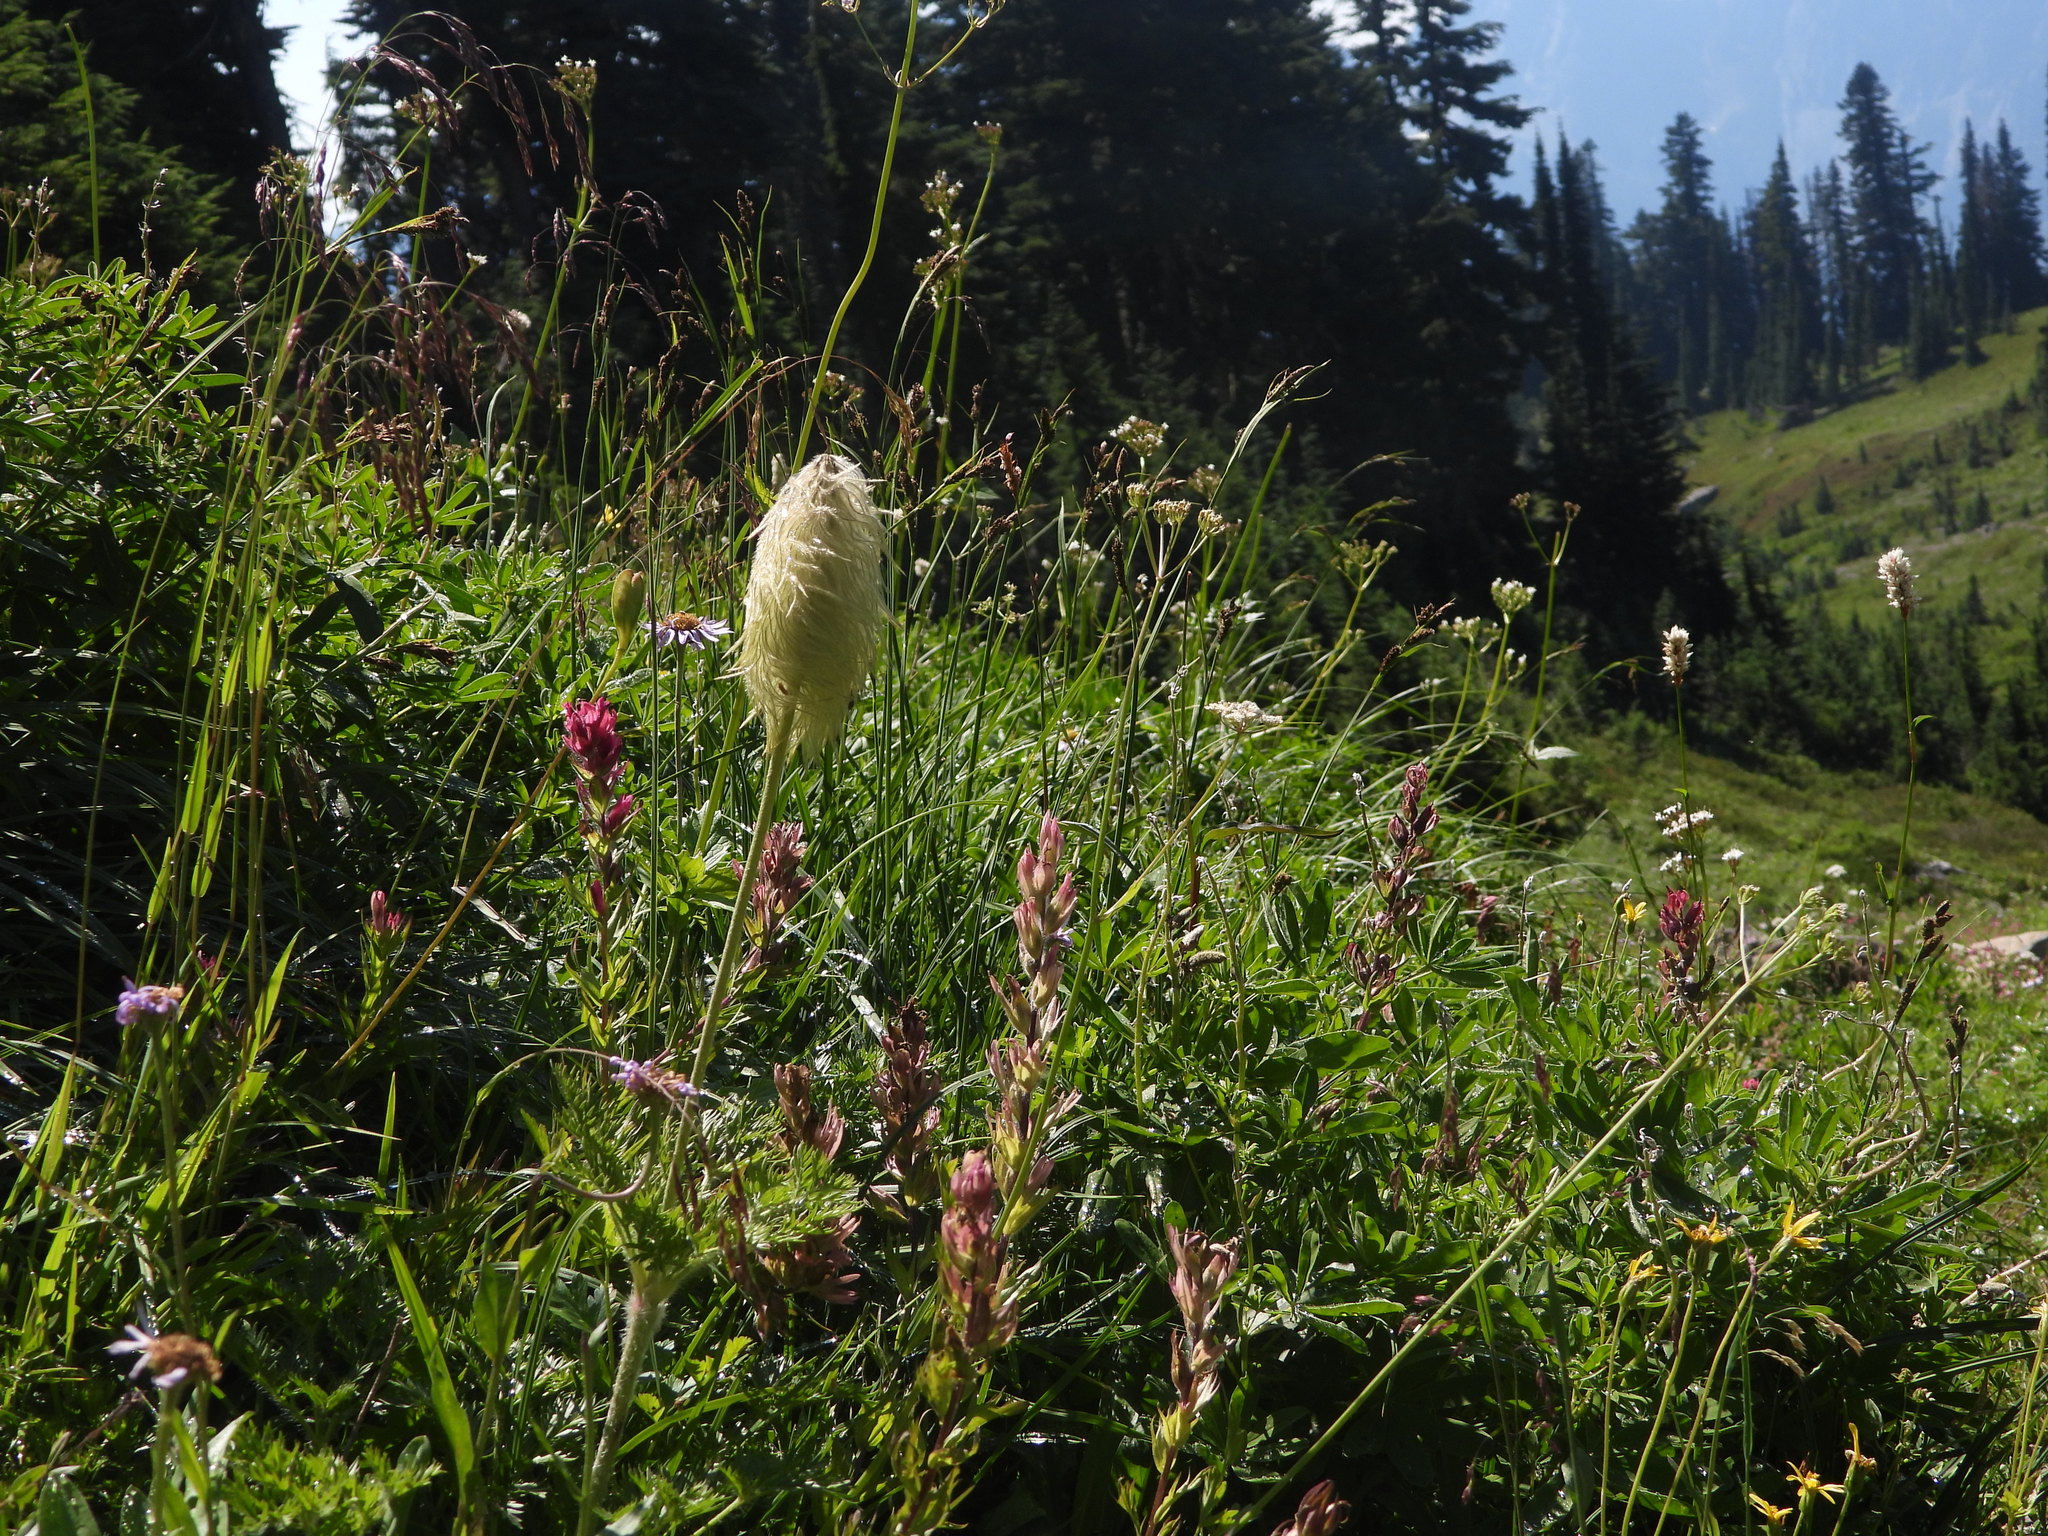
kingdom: Plantae
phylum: Tracheophyta
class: Magnoliopsida
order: Ranunculales
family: Ranunculaceae
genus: Pulsatilla
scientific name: Pulsatilla occidentalis
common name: Mountain pasqueflower
